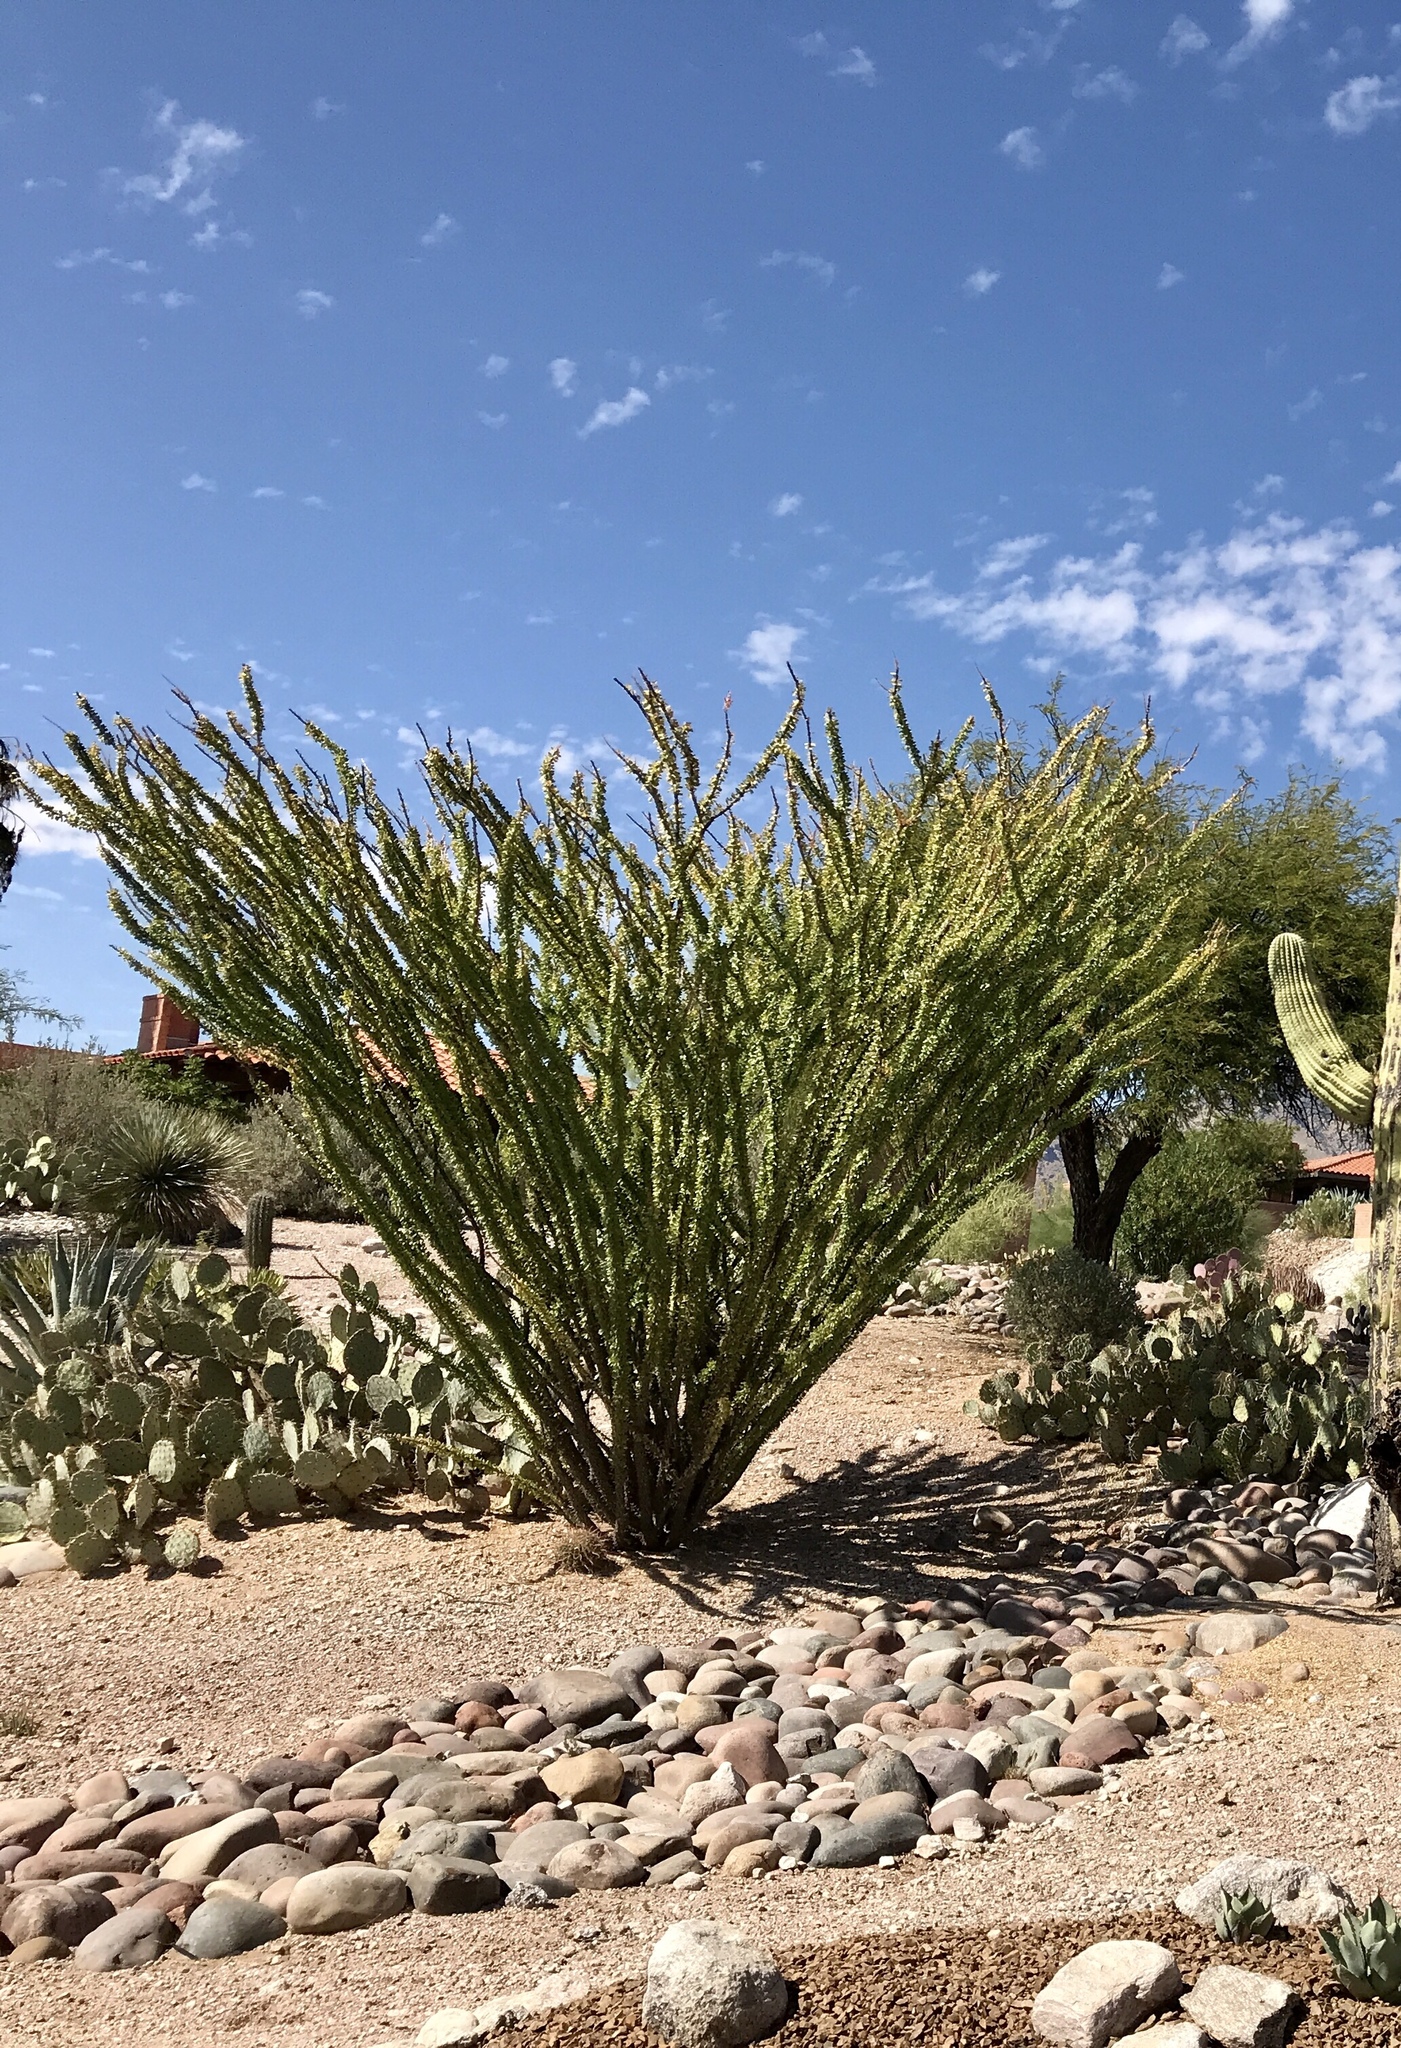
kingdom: Plantae
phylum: Tracheophyta
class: Magnoliopsida
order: Ericales
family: Fouquieriaceae
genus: Fouquieria
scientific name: Fouquieria splendens
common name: Vine-cactus
